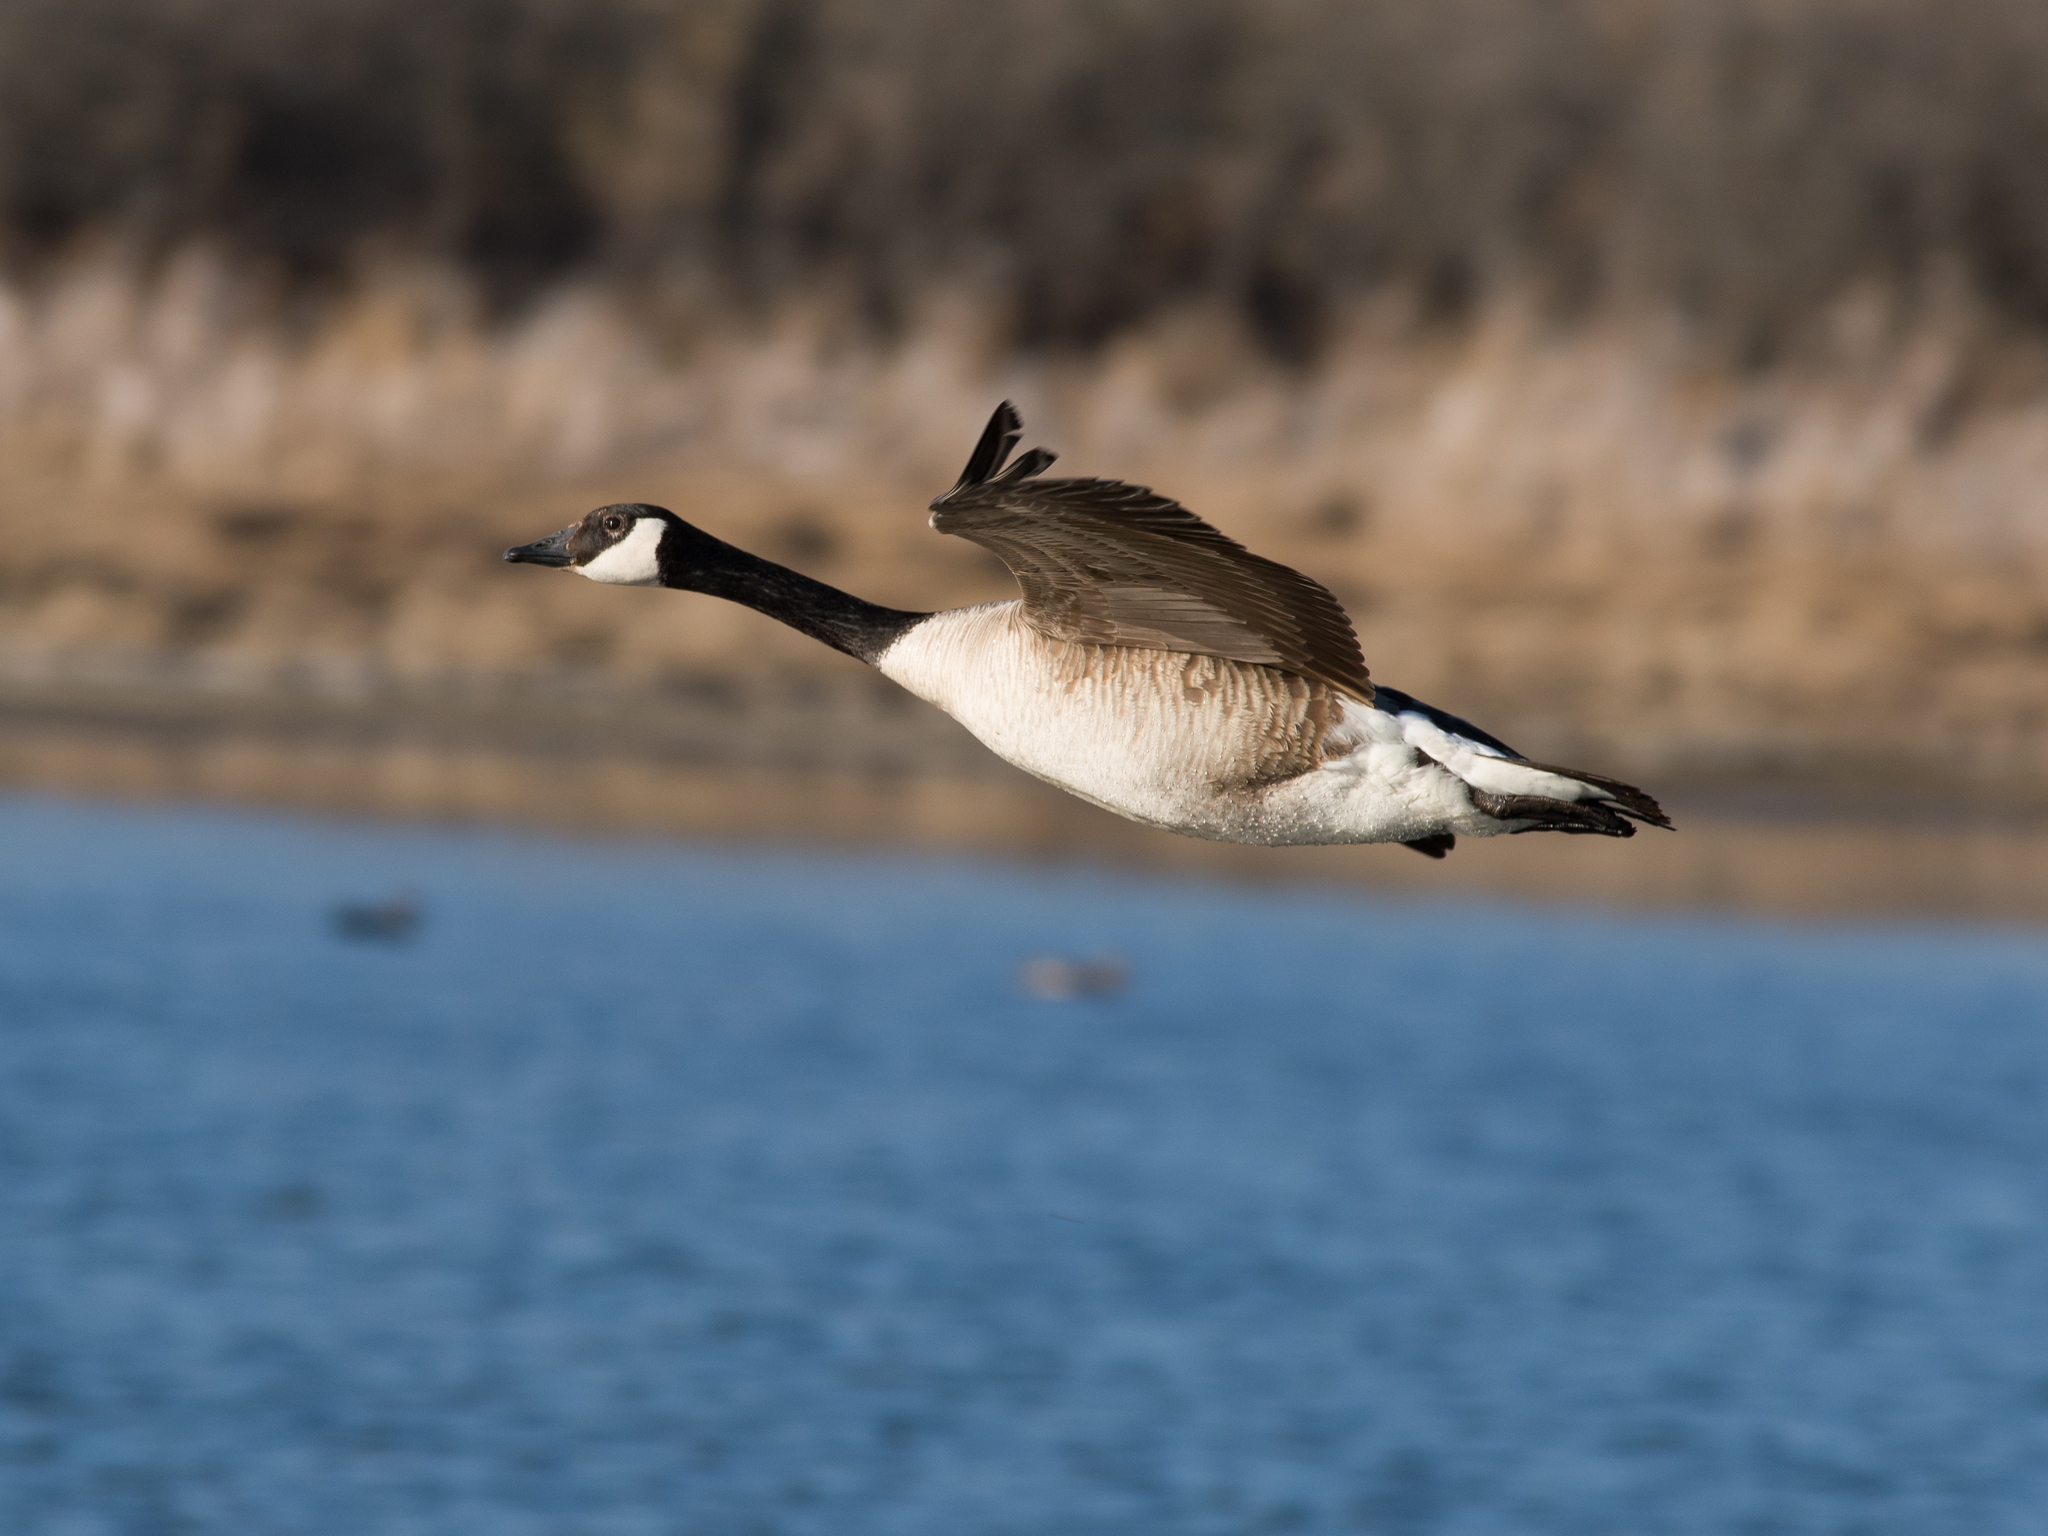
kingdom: Animalia
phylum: Chordata
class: Aves
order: Anseriformes
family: Anatidae
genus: Branta
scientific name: Branta canadensis
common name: Canada goose
